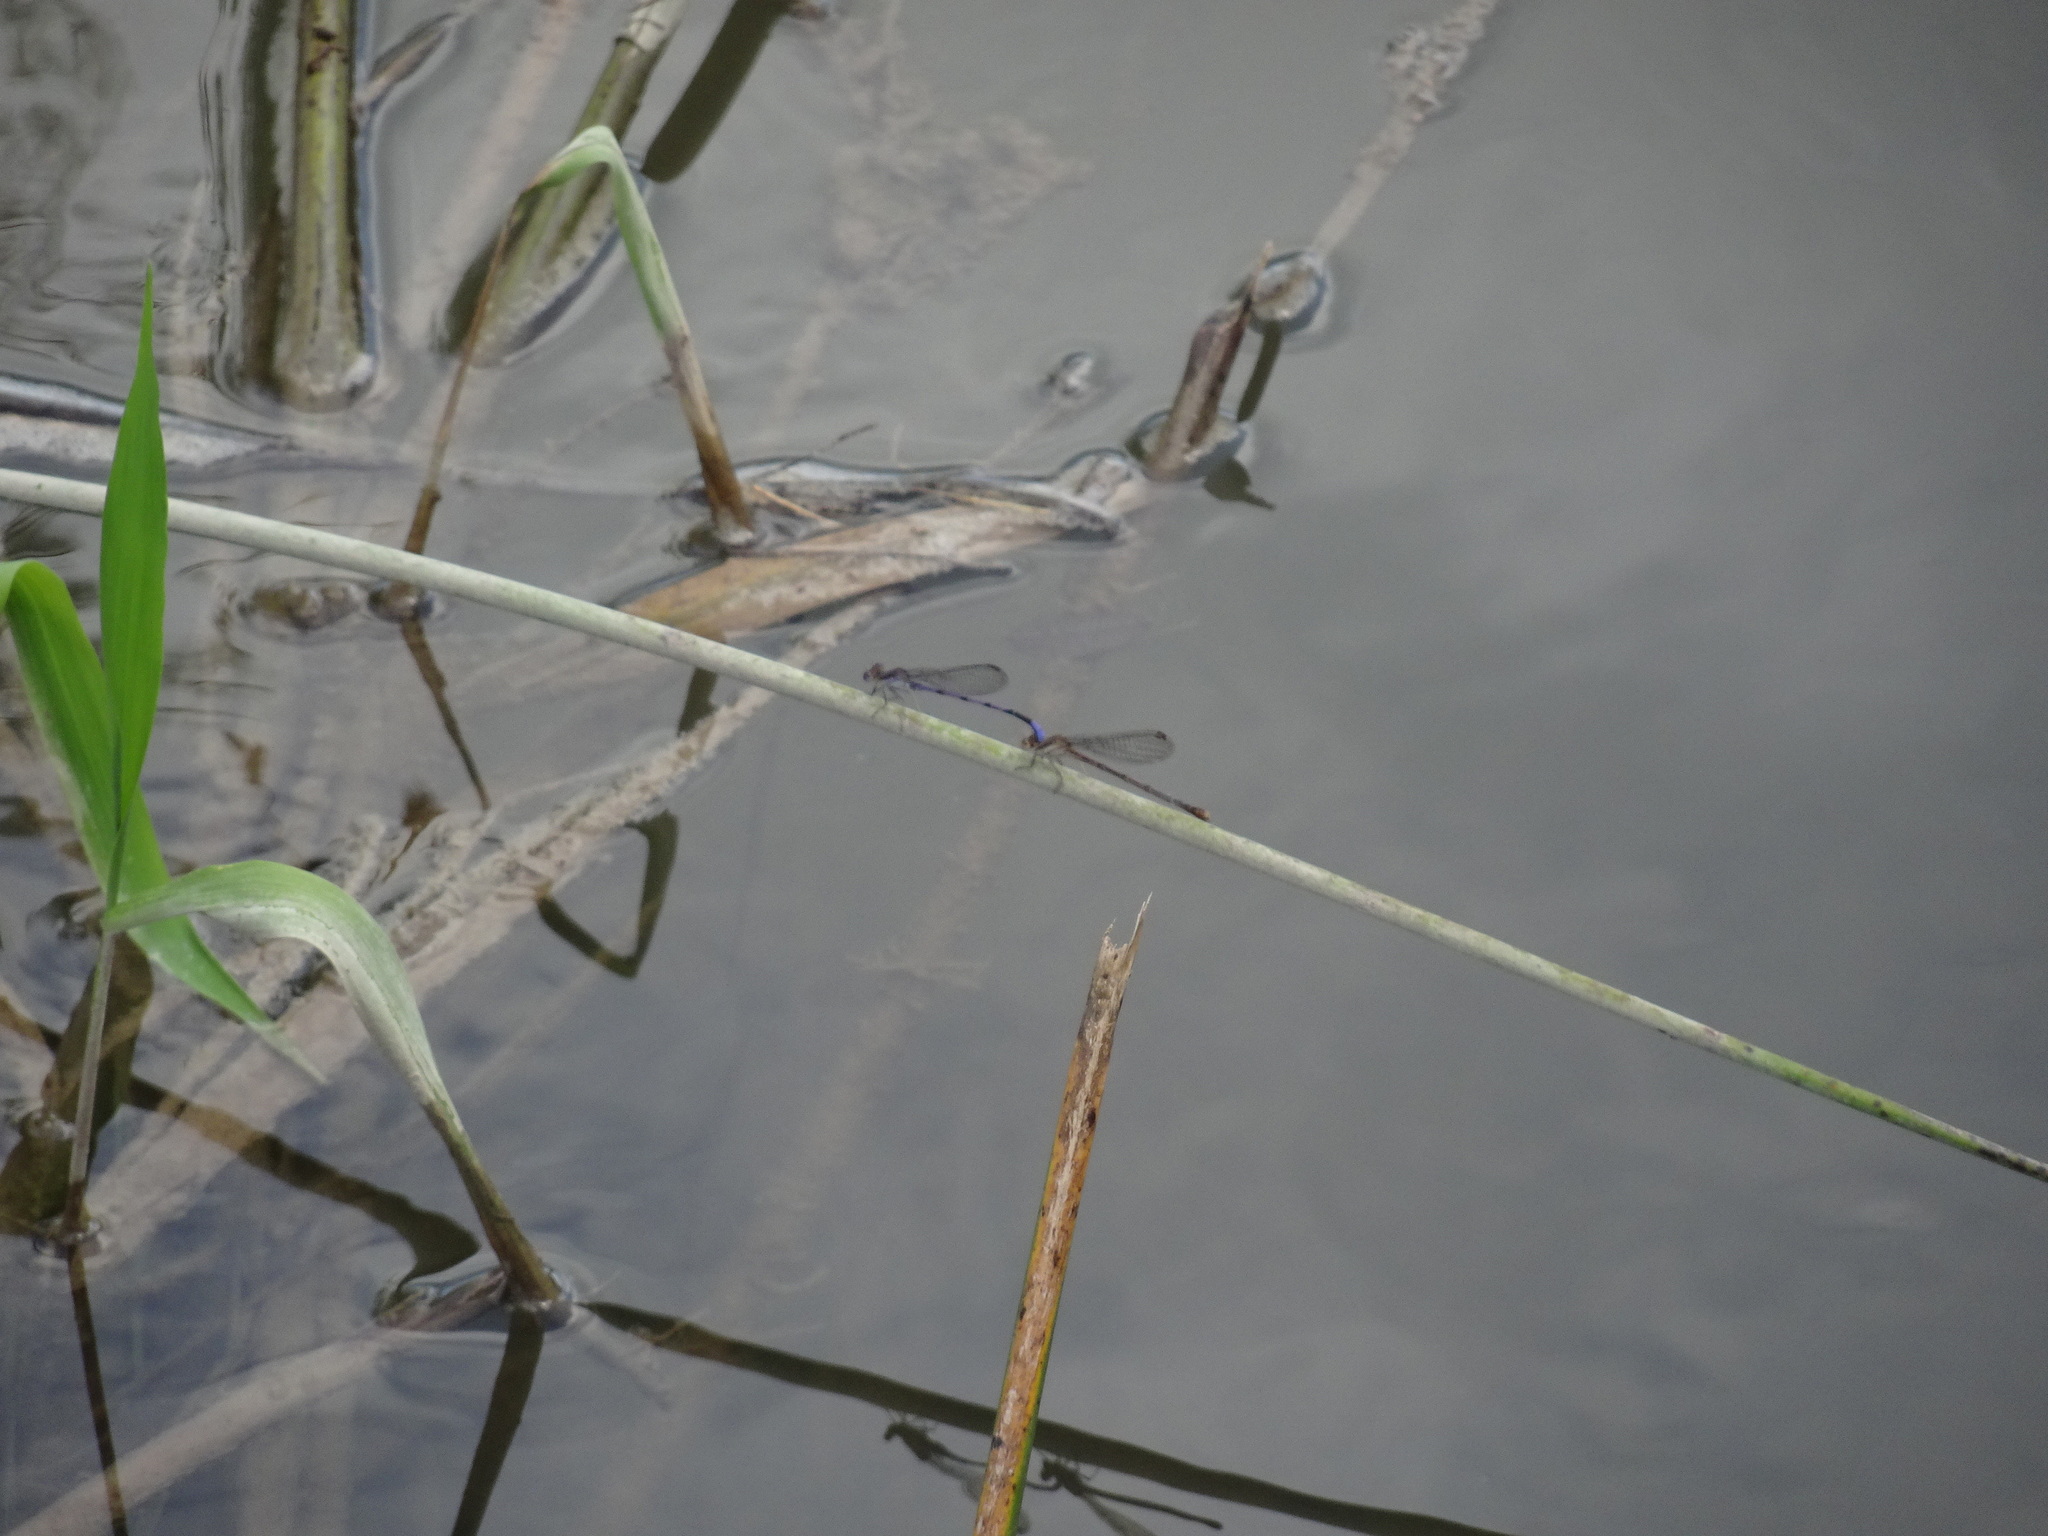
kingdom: Animalia
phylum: Arthropoda
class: Insecta
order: Odonata
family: Coenagrionidae
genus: Argia
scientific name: Argia fumipennis
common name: Variable dancer
